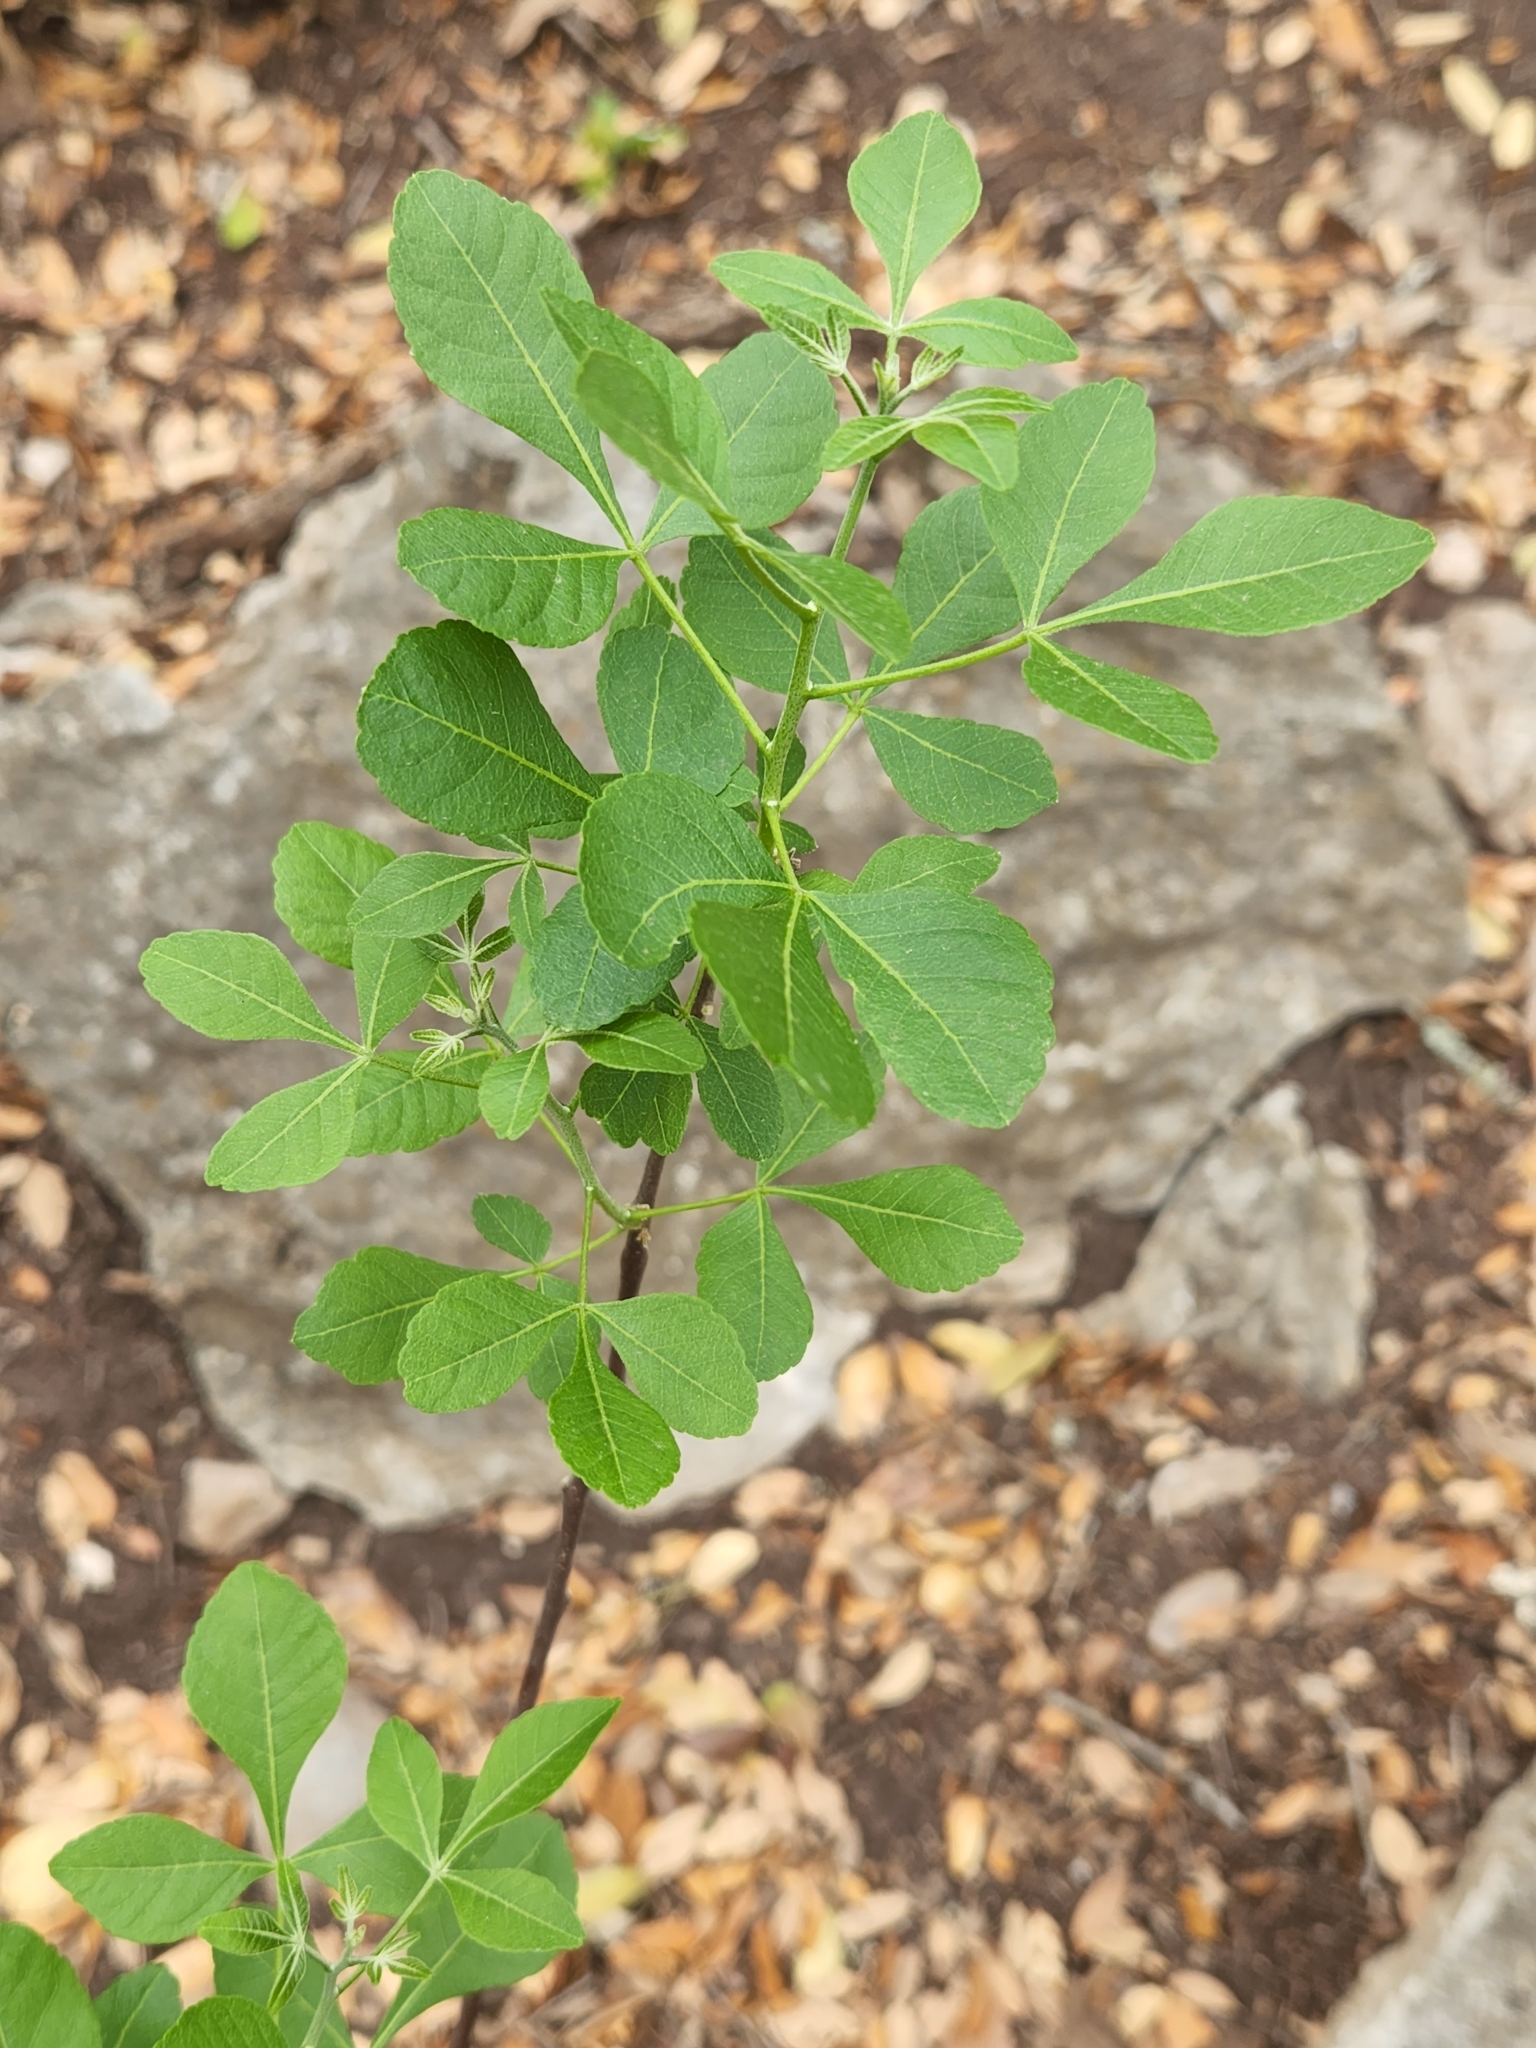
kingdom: Plantae
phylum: Tracheophyta
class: Magnoliopsida
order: Sapindales
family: Rutaceae
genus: Ptelea
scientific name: Ptelea trifoliata
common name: Common hop-tree
